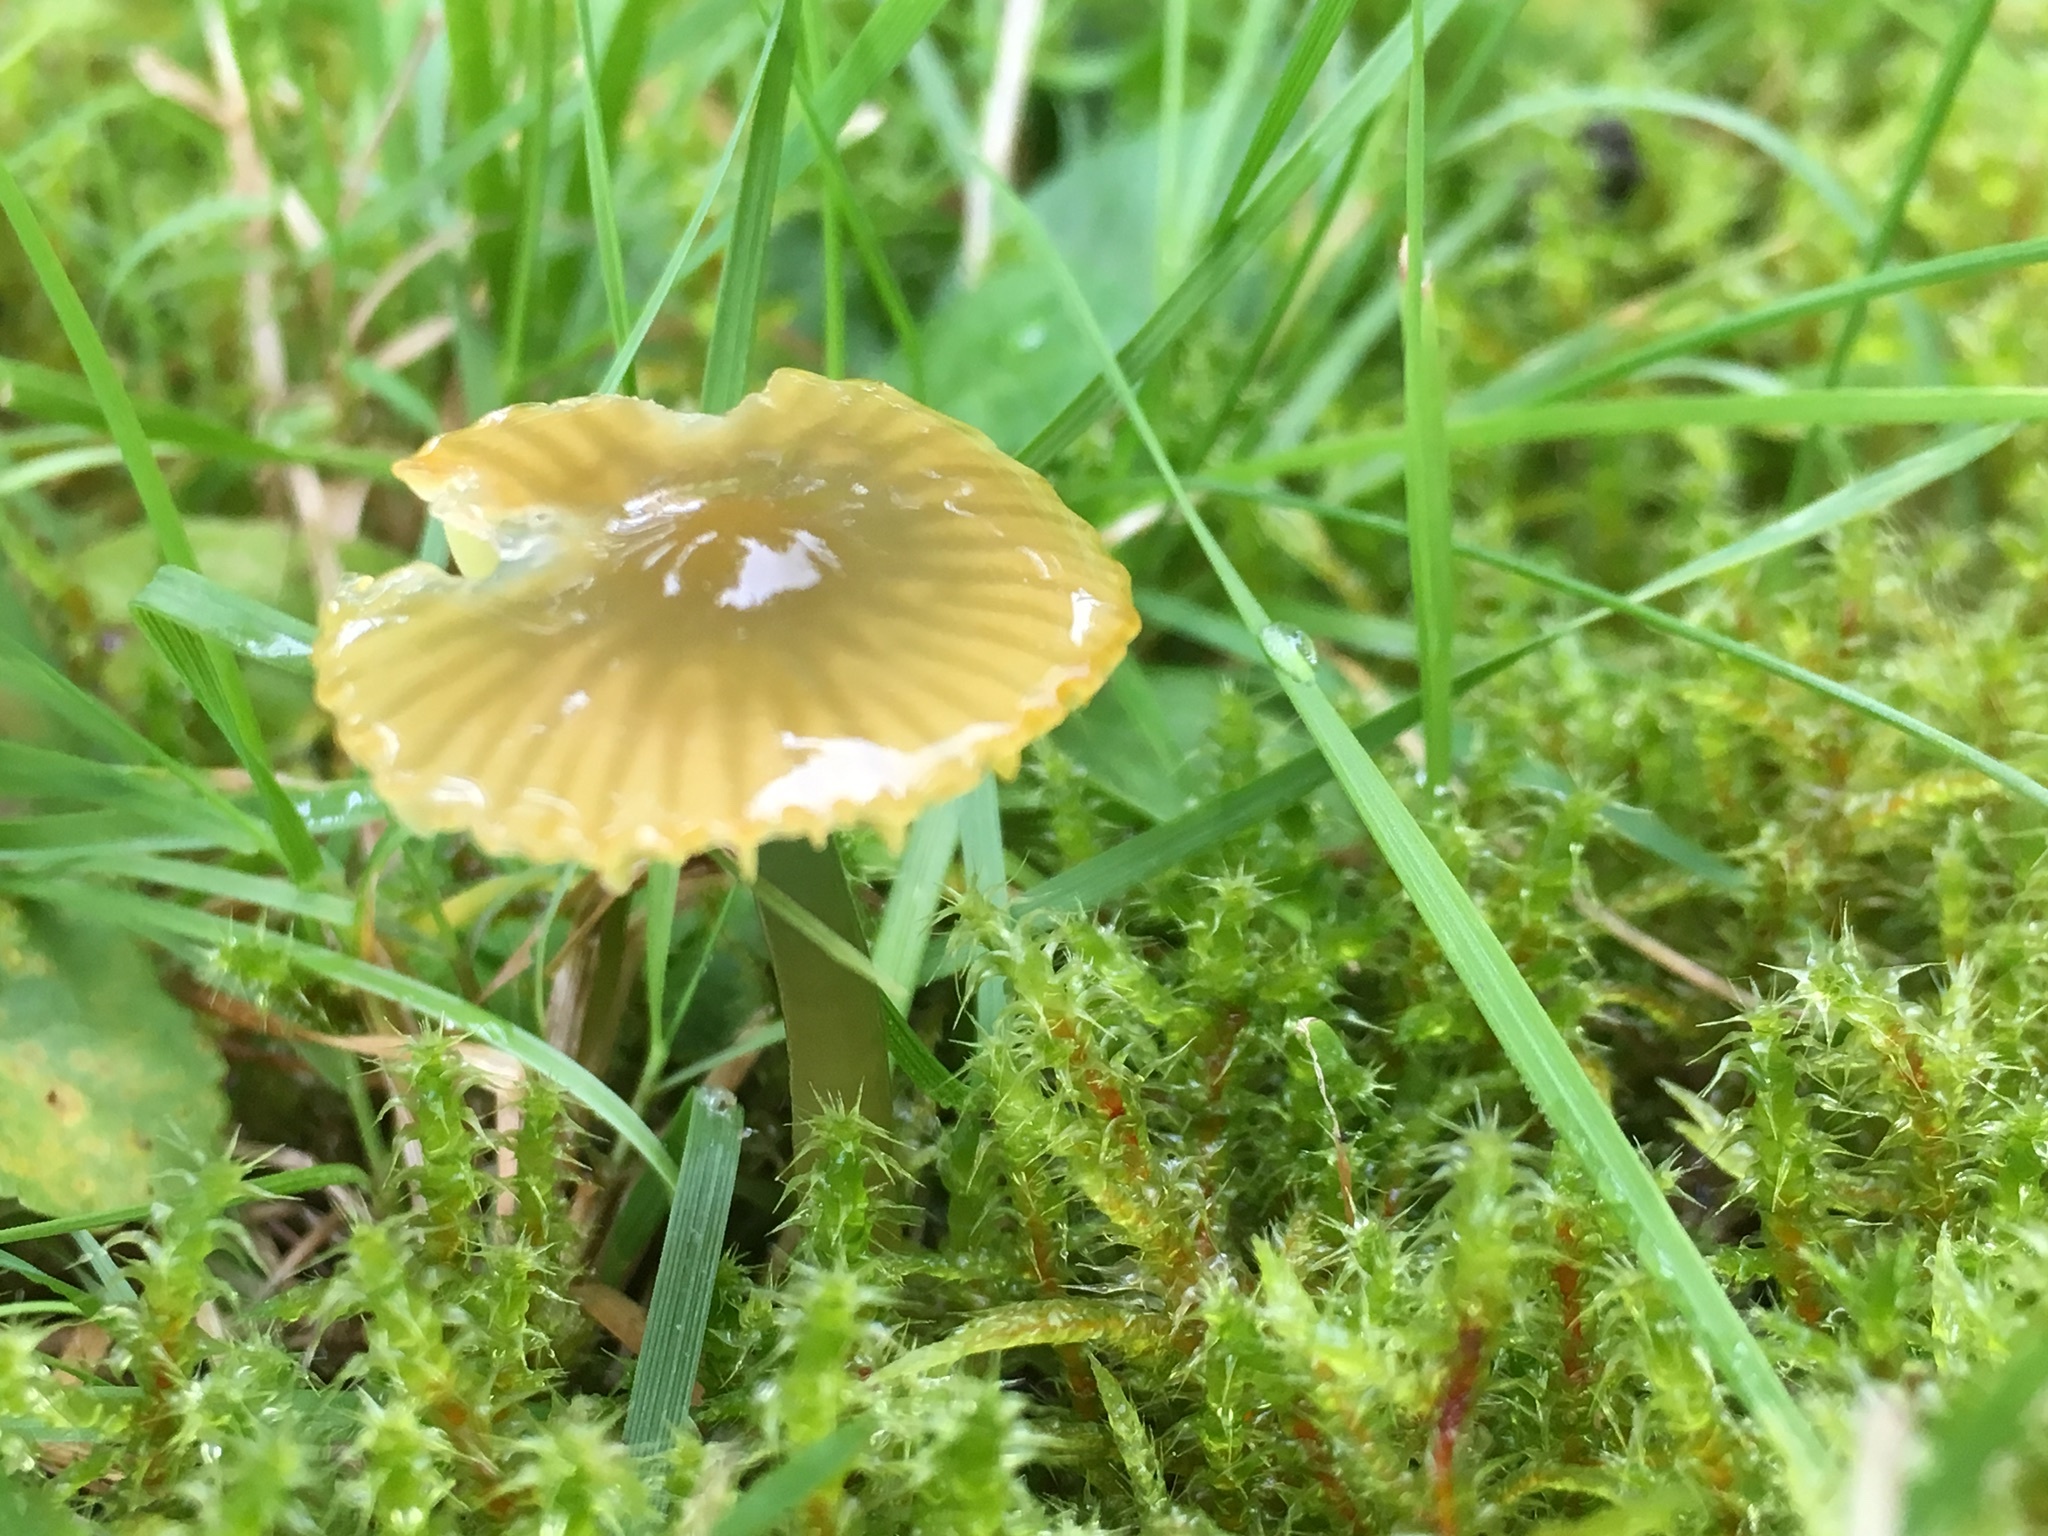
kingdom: Fungi
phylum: Basidiomycota
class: Agaricomycetes
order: Agaricales
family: Hygrophoraceae
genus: Gliophorus
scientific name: Gliophorus psittacinus
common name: Parrot wax-cap
